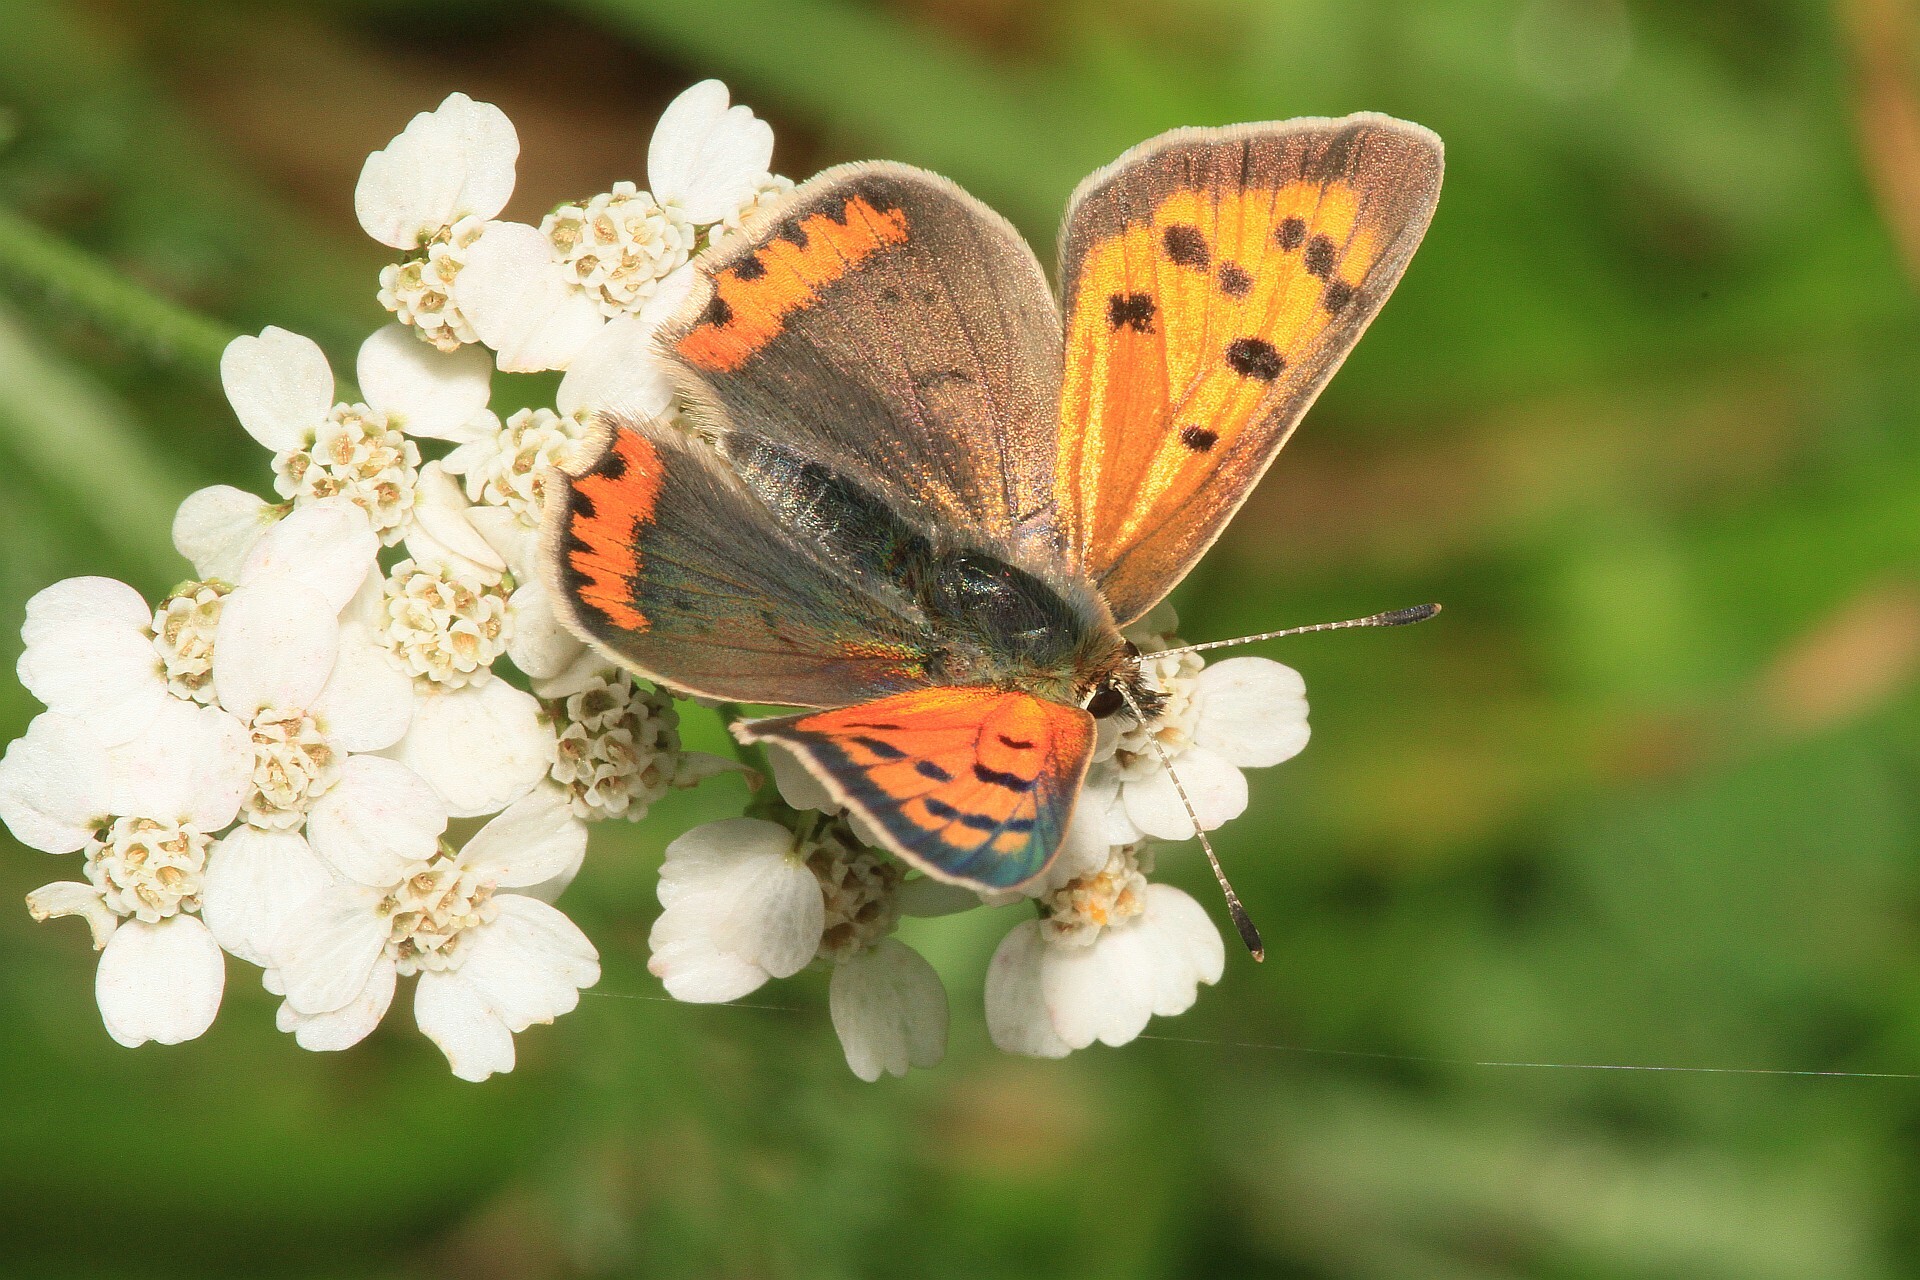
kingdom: Animalia
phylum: Arthropoda
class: Insecta
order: Lepidoptera
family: Lycaenidae
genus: Lycaena
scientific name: Lycaena phlaeas
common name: Small copper
